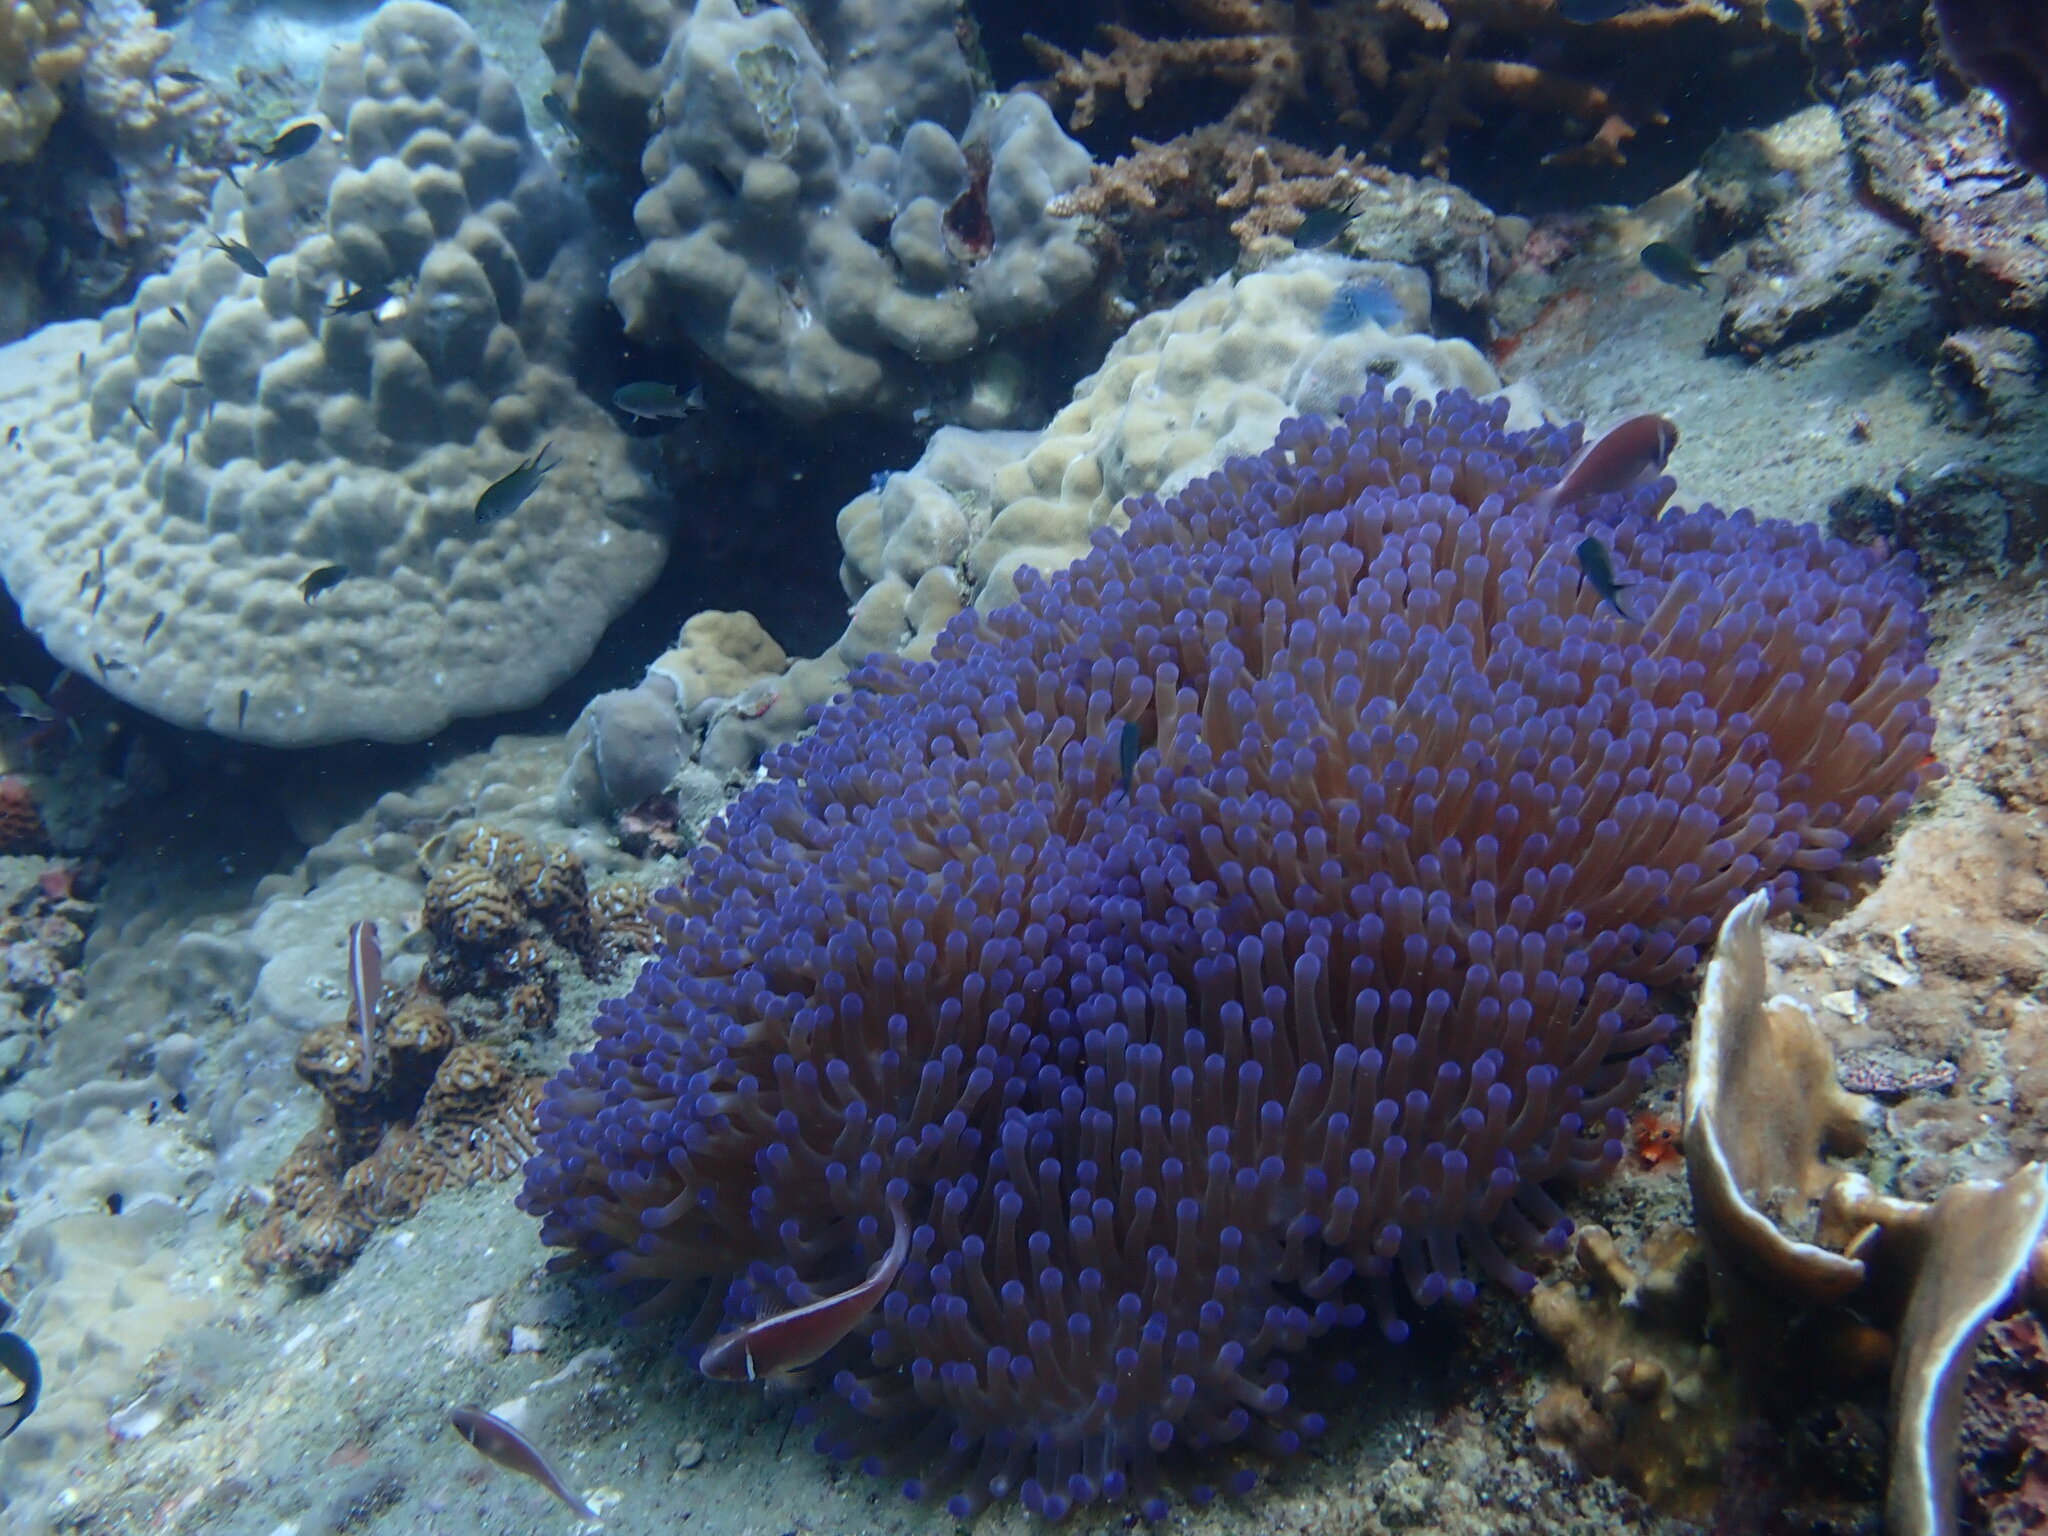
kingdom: Animalia
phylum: Cnidaria
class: Anthozoa
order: Actiniaria
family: Stichodactylidae
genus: Radianthus
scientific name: Radianthus magnifica
